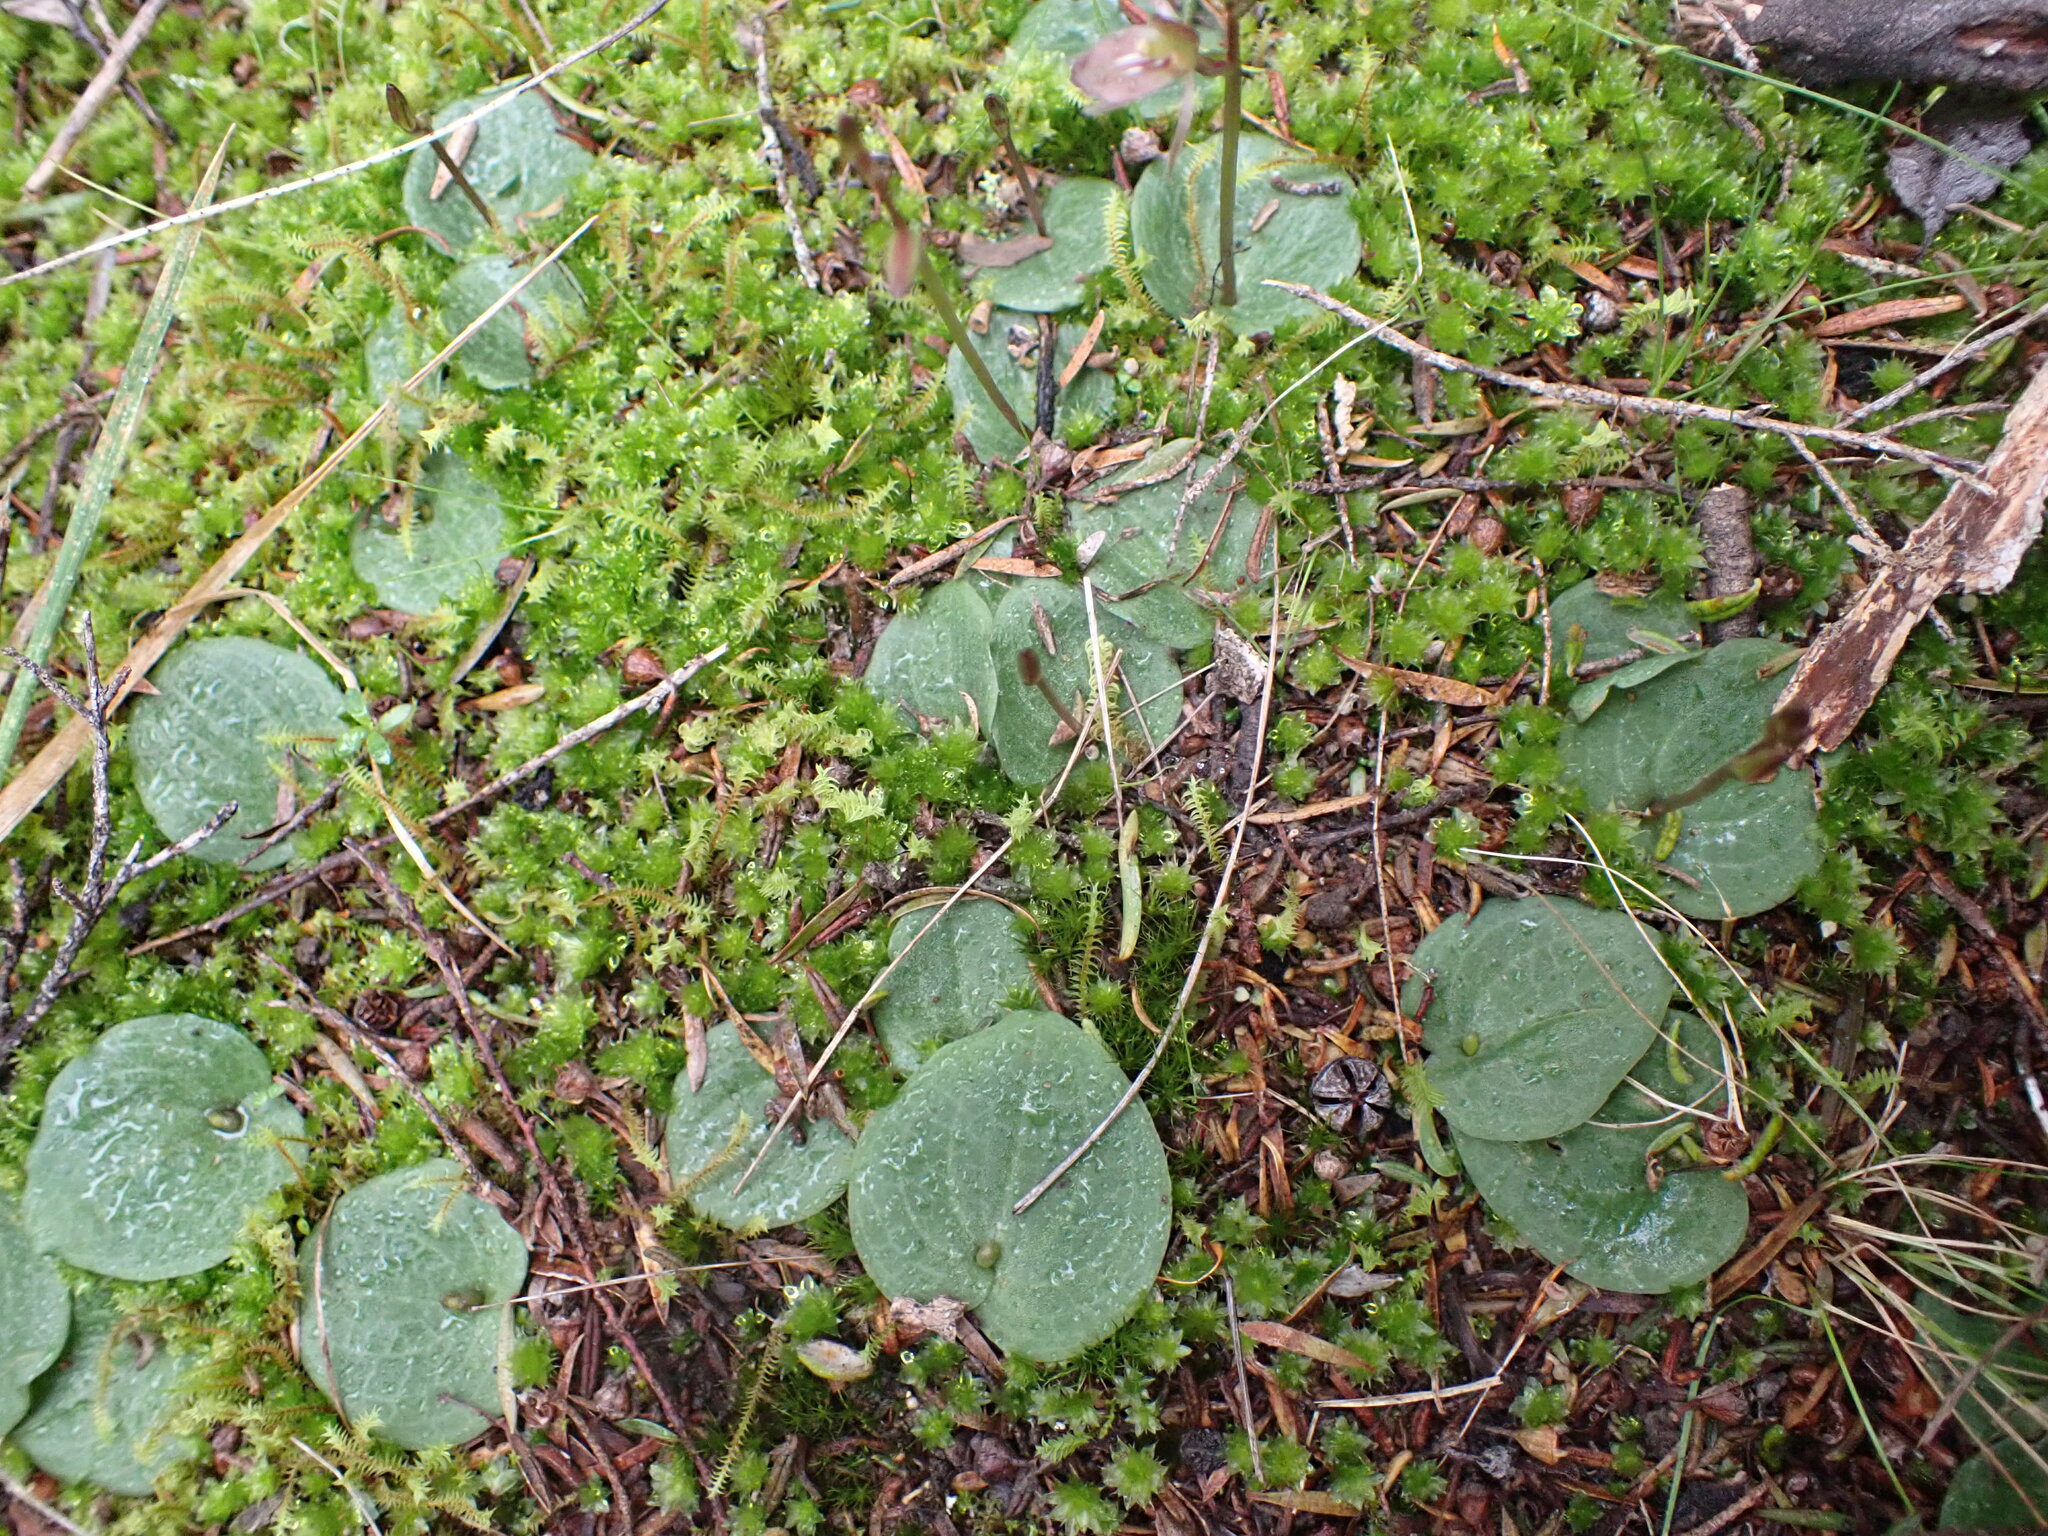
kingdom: Plantae
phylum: Tracheophyta
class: Liliopsida
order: Asparagales
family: Orchidaceae
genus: Cyrtostylis
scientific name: Cyrtostylis rotundifolia
